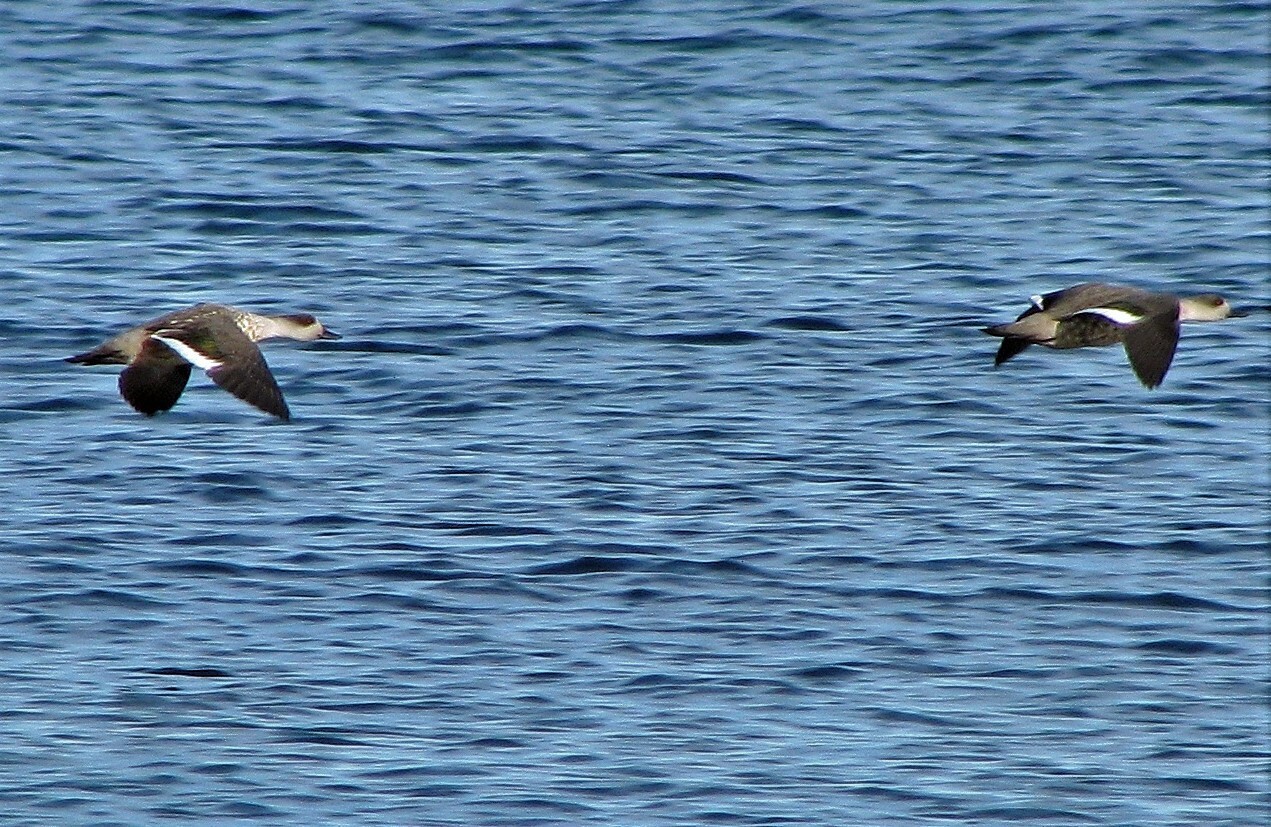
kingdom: Animalia
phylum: Chordata
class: Aves
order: Anseriformes
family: Anatidae
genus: Lophonetta
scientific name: Lophonetta specularioides
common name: Crested duck
